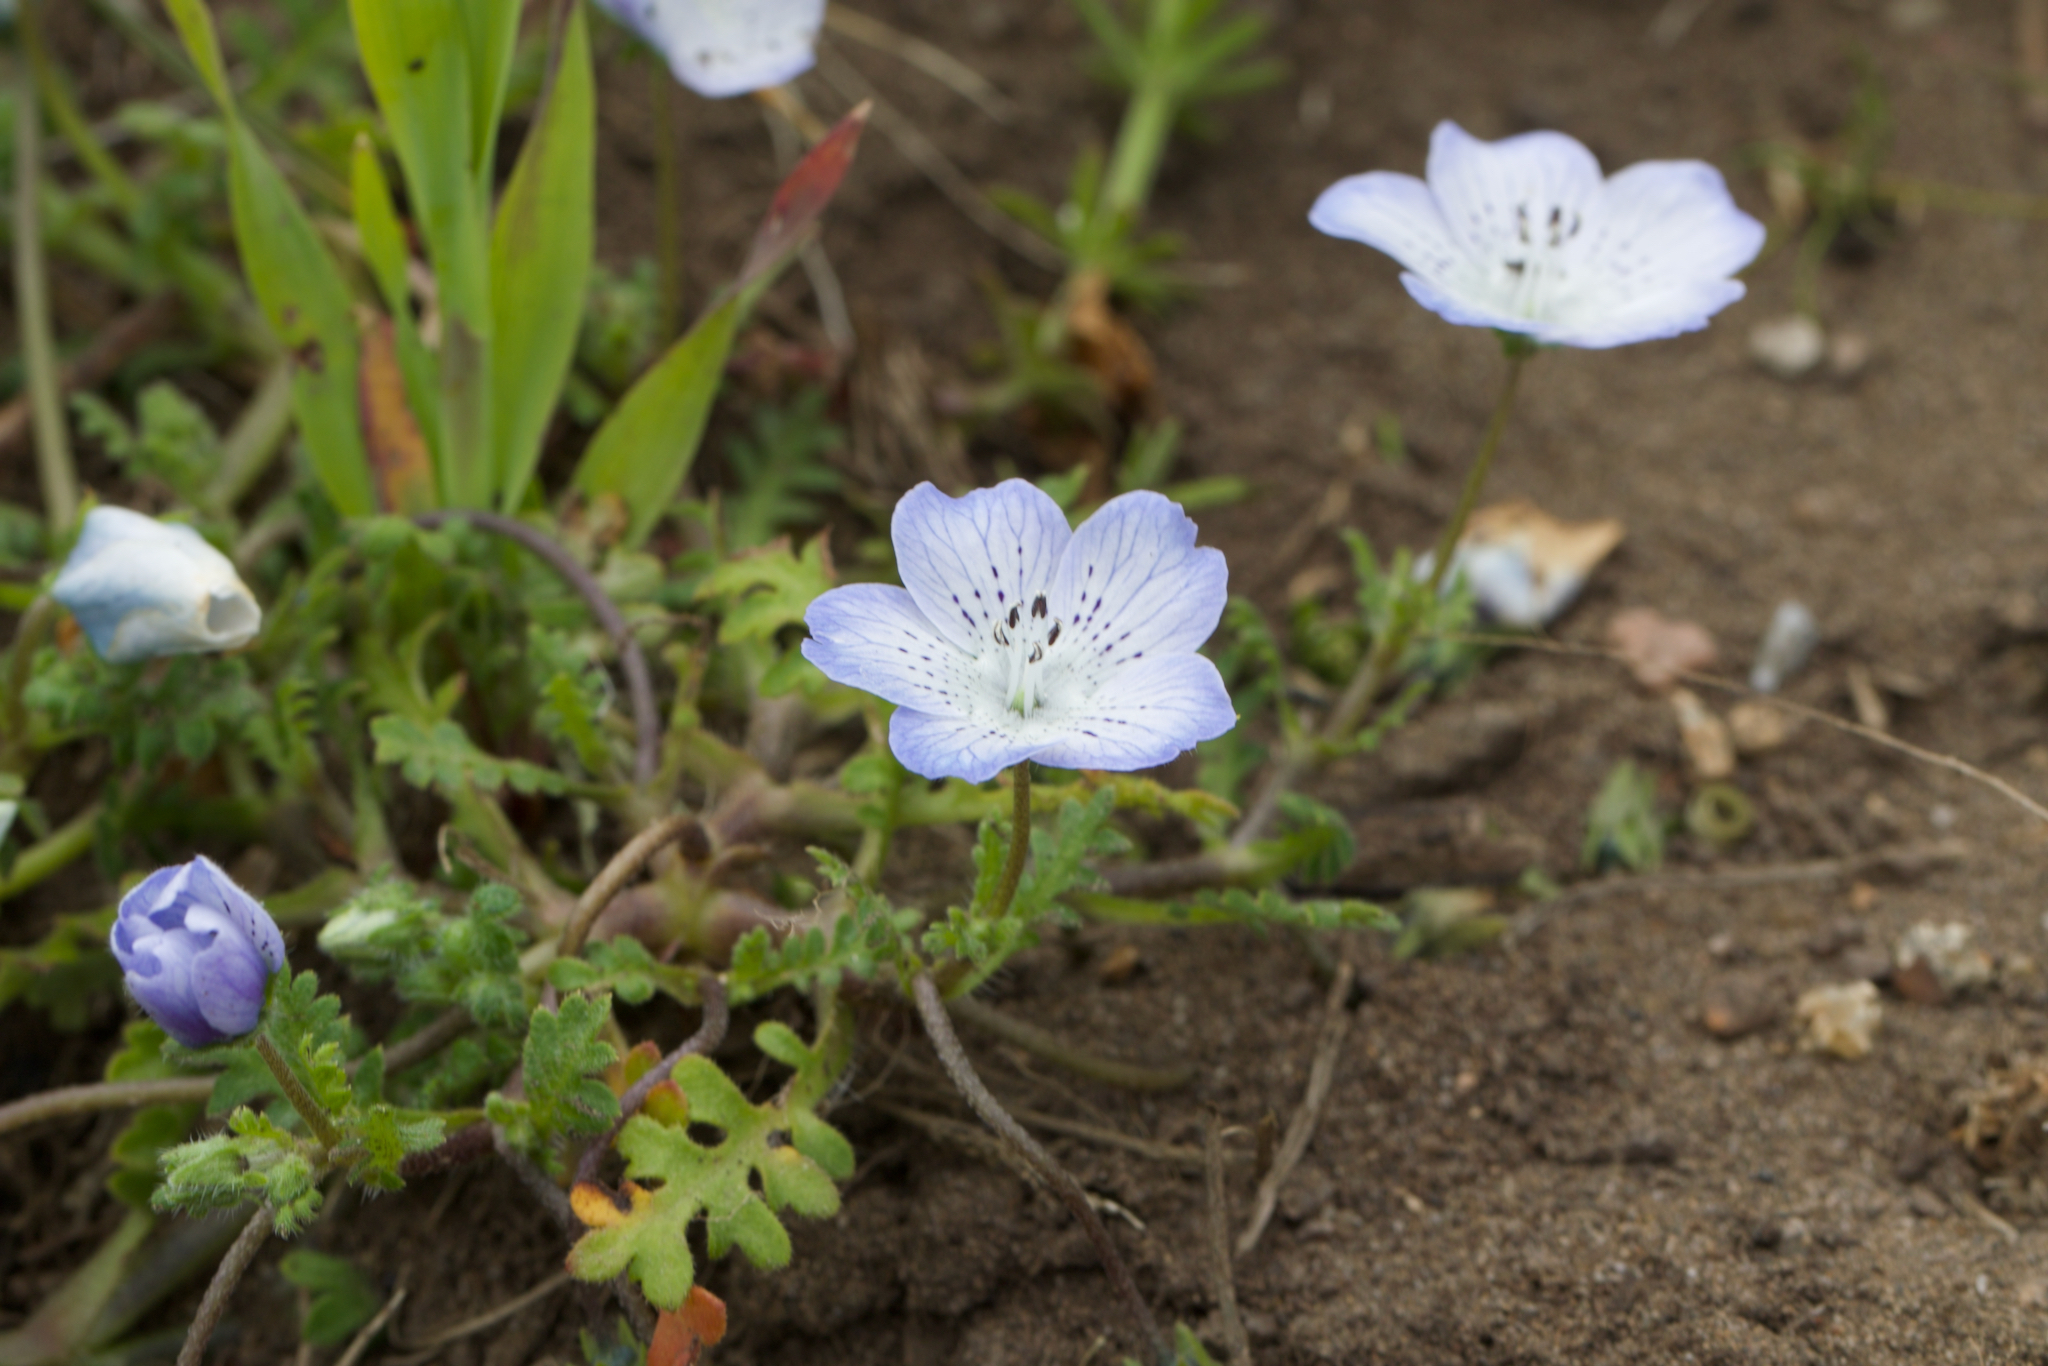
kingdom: Plantae
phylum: Tracheophyta
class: Magnoliopsida
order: Boraginales
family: Hydrophyllaceae
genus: Nemophila
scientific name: Nemophila menziesii
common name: Baby's-blue-eyes
